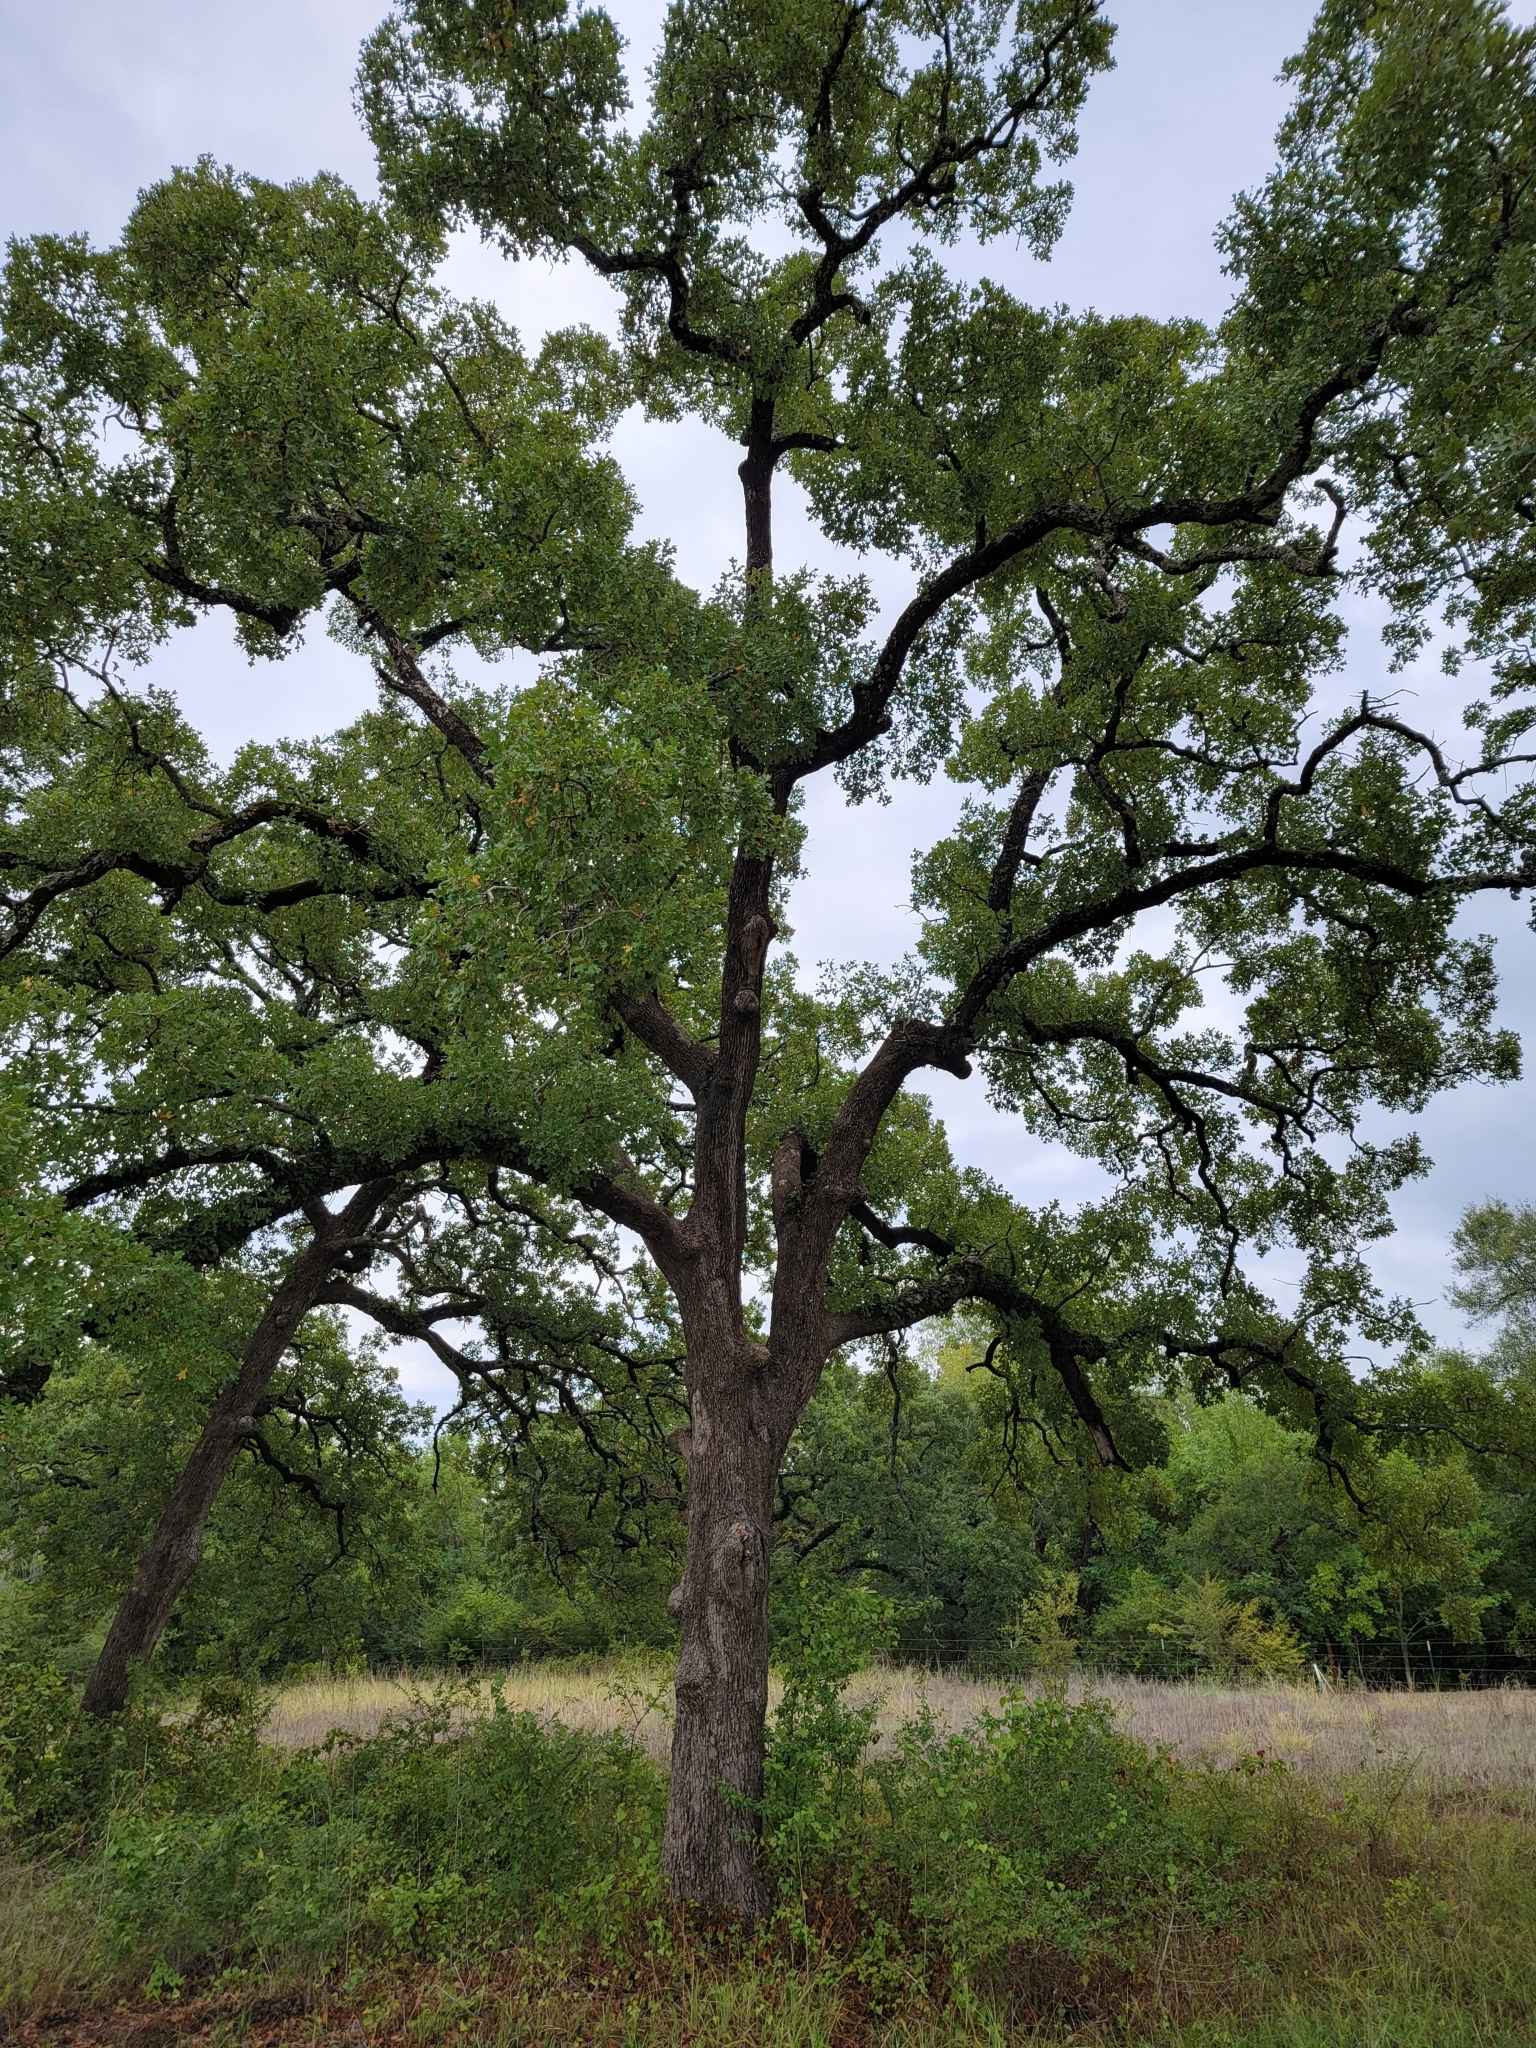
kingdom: Plantae
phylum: Tracheophyta
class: Magnoliopsida
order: Fagales
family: Fagaceae
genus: Quercus
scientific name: Quercus stellata
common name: Post oak
